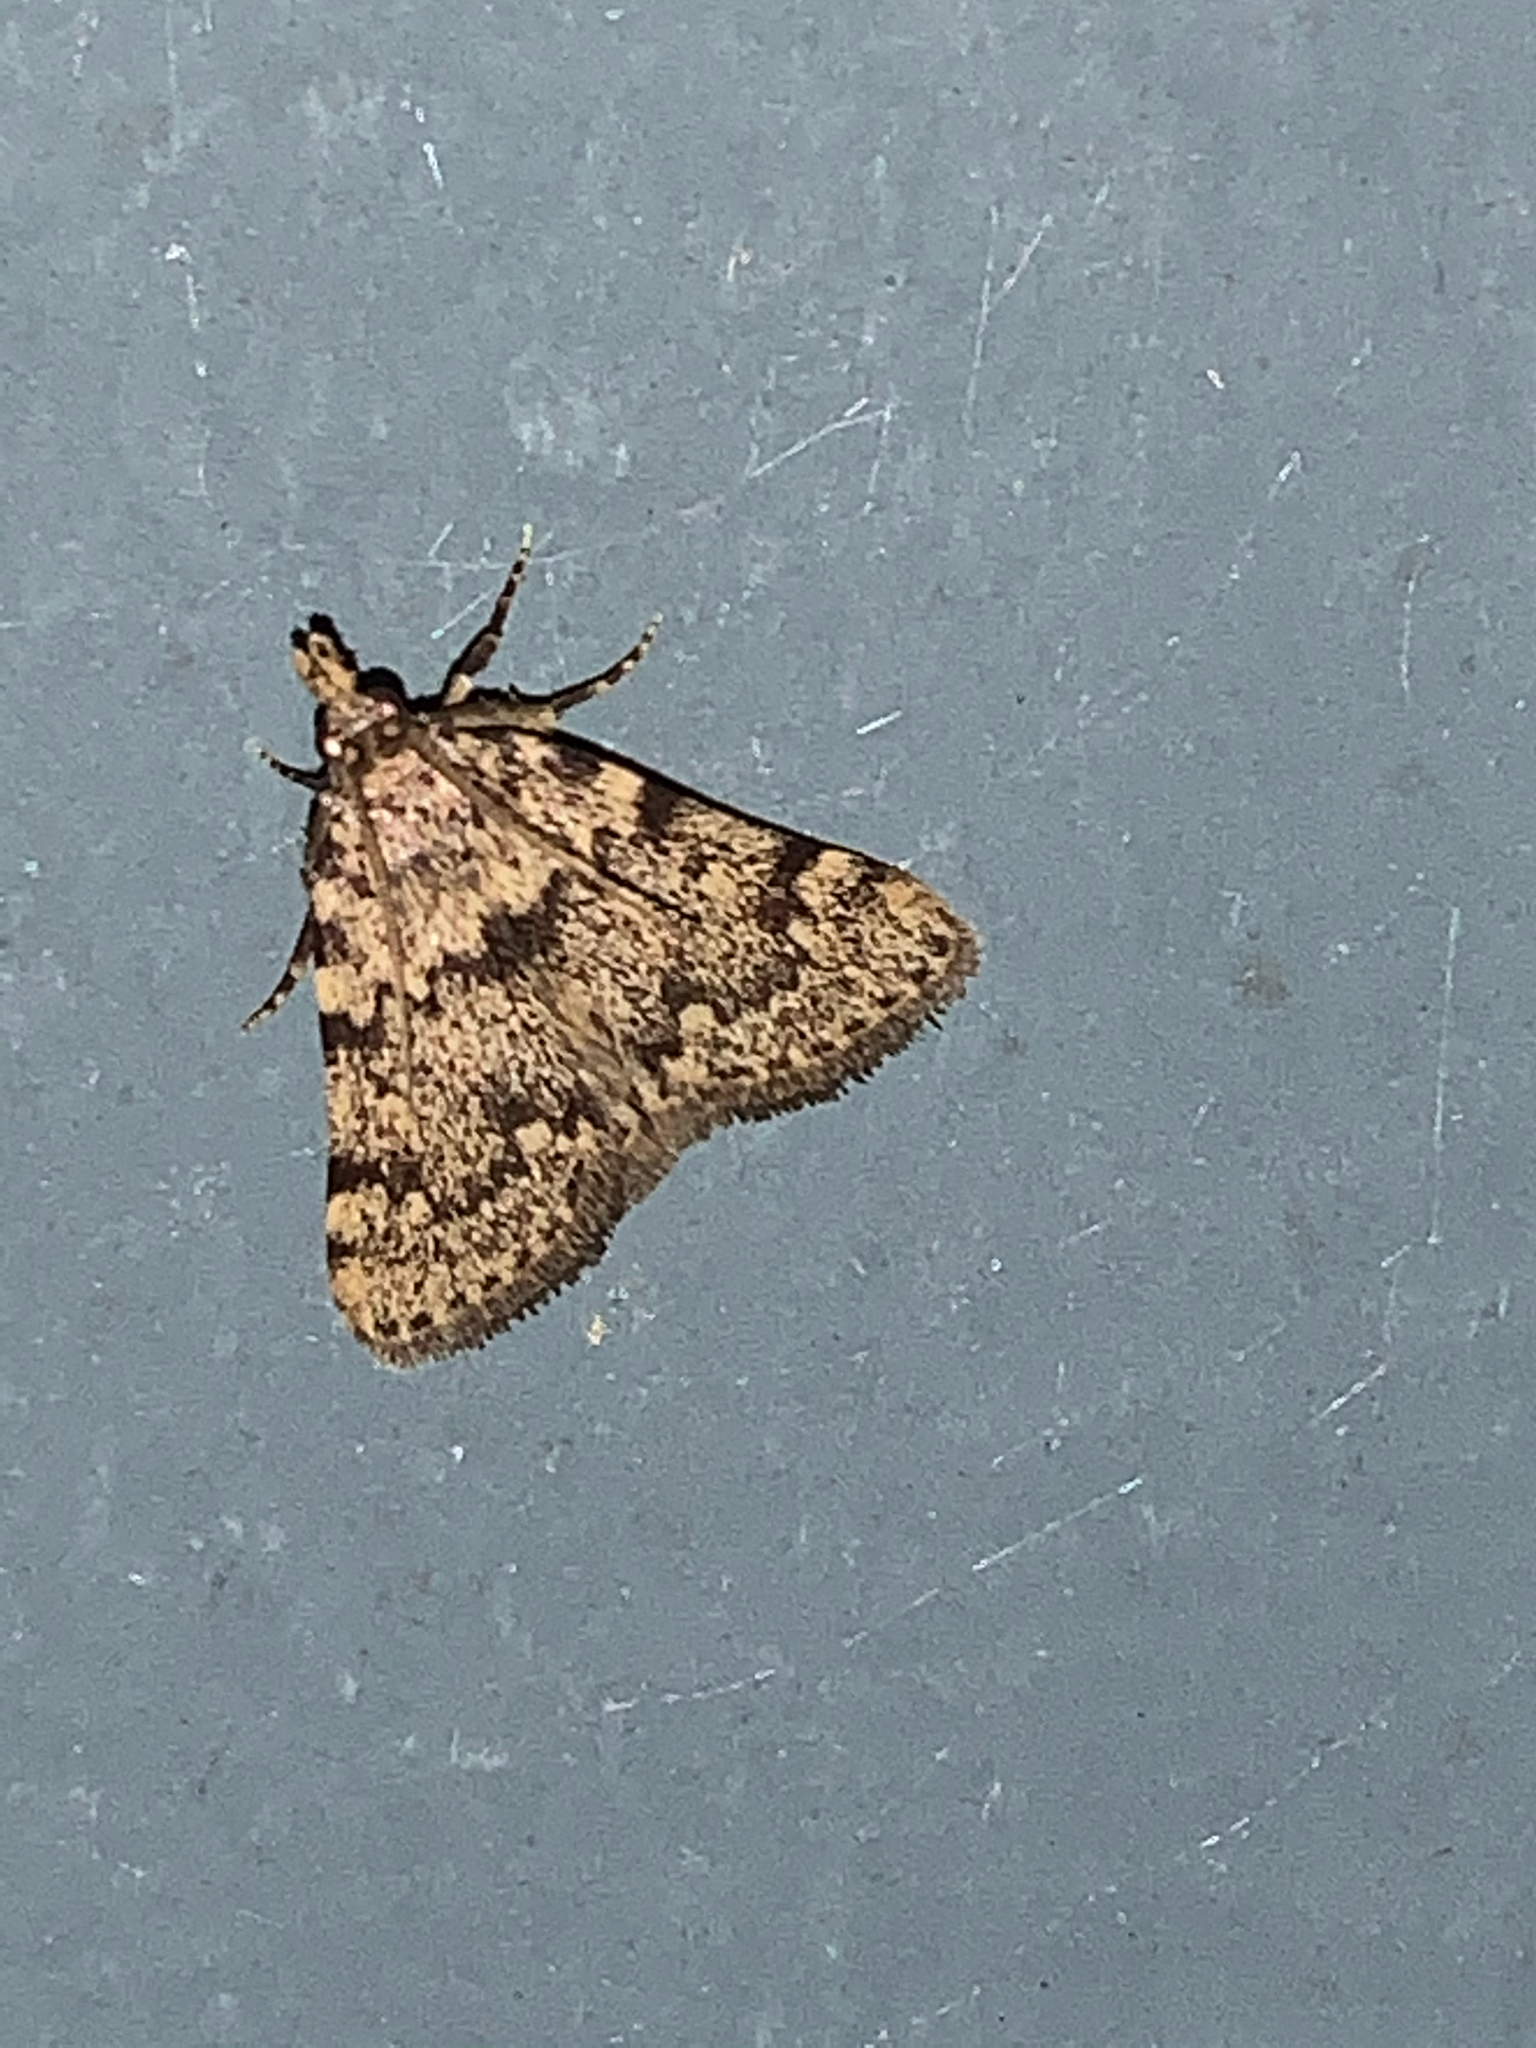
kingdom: Animalia
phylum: Arthropoda
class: Insecta
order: Lepidoptera
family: Pyralidae
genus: Aglossa
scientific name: Aglossa pinguinalis
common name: Large tabby
